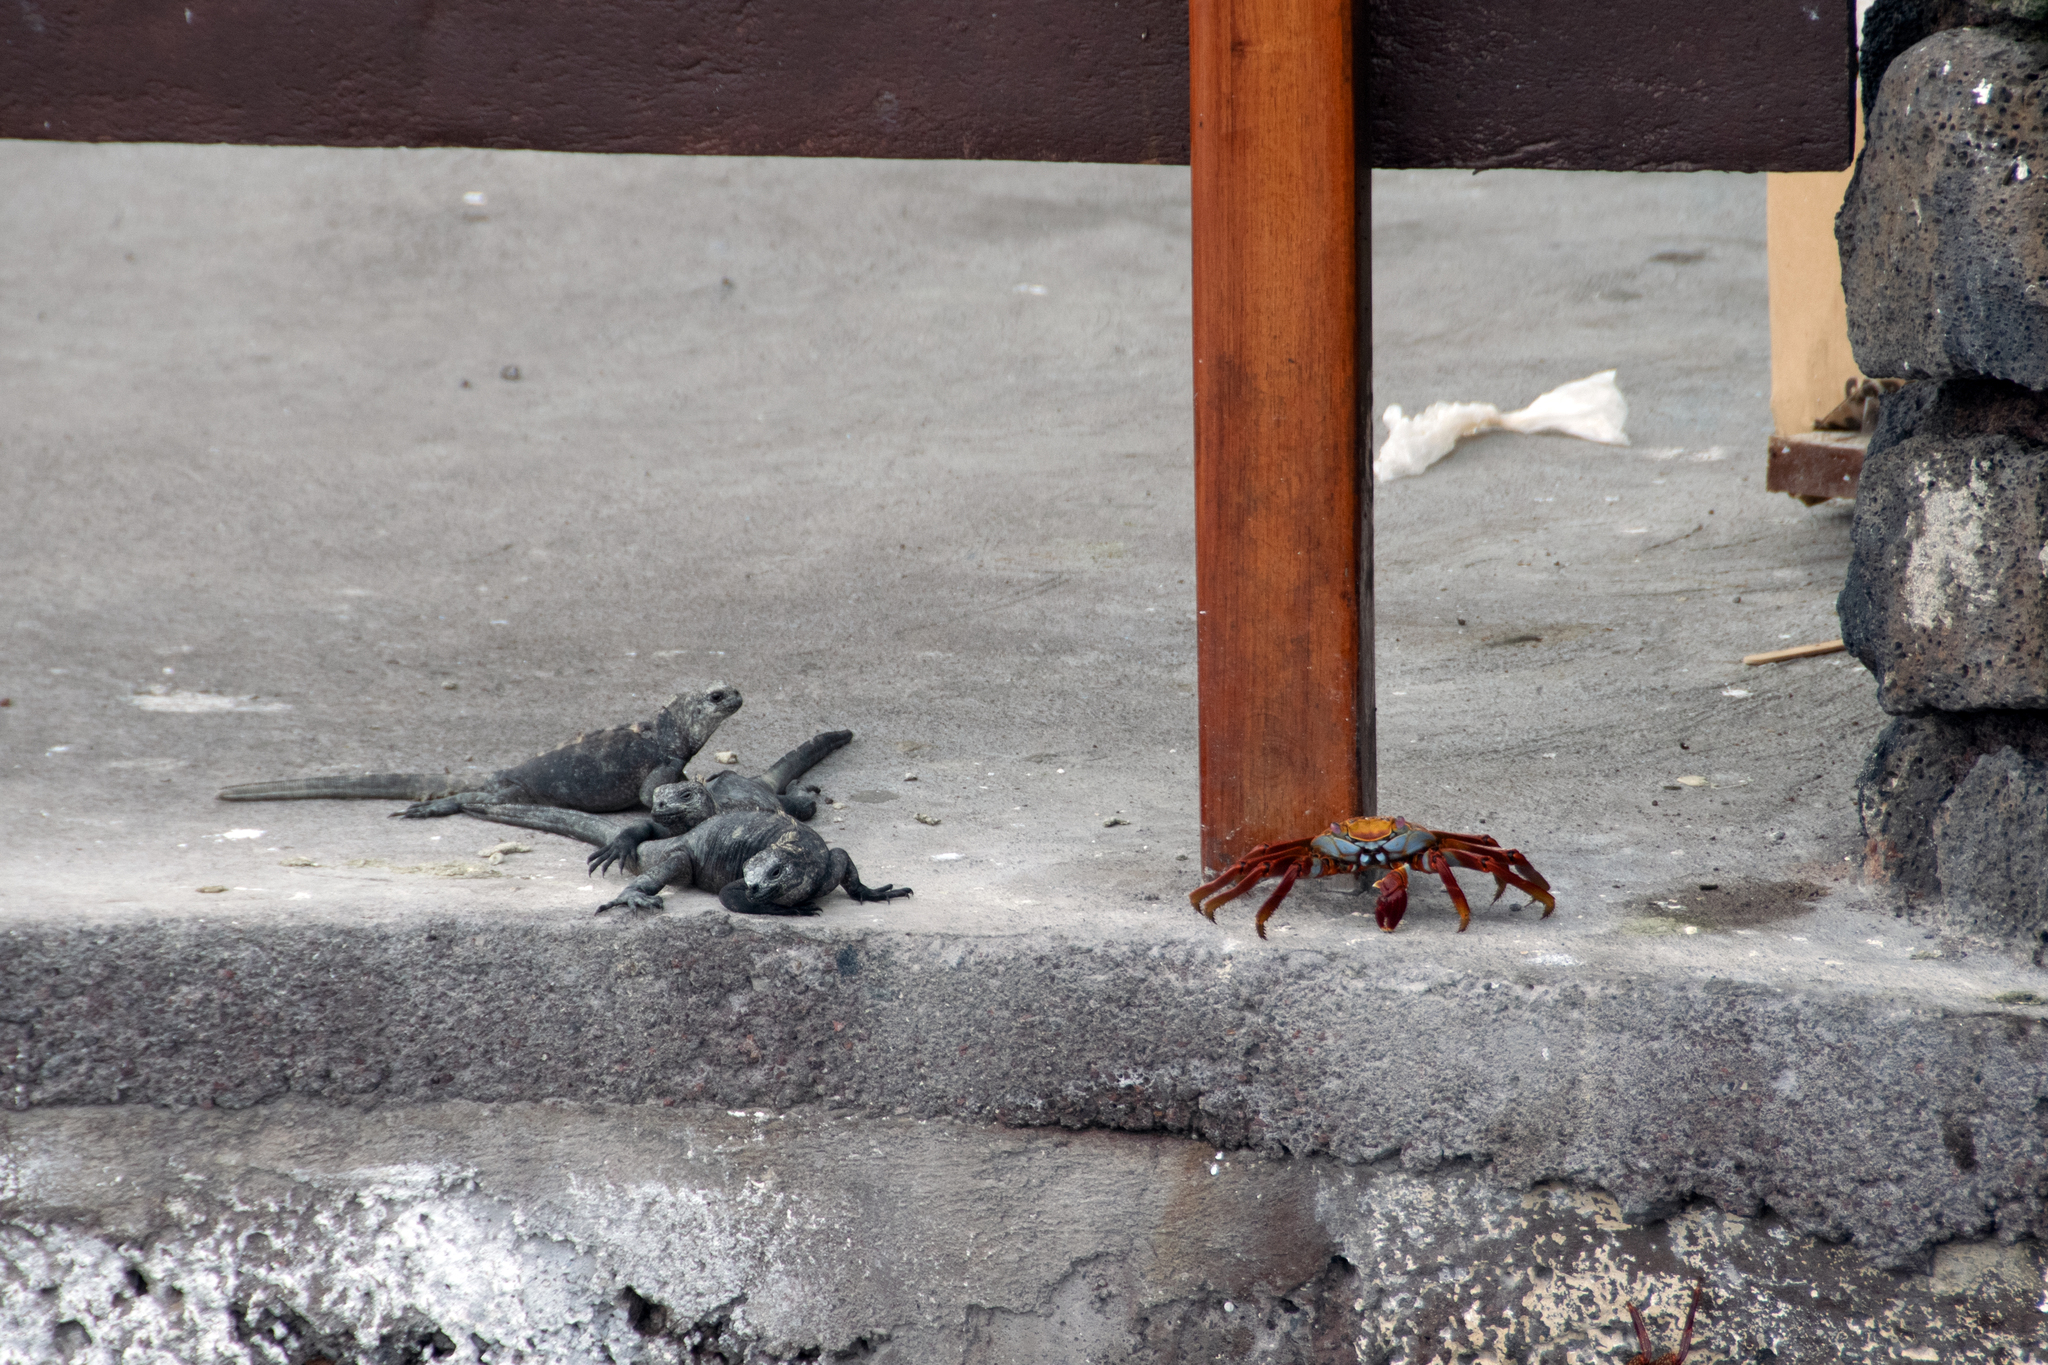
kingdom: Animalia
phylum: Arthropoda
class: Malacostraca
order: Decapoda
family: Grapsidae
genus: Grapsus
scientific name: Grapsus grapsus
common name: Sally lightfoot
